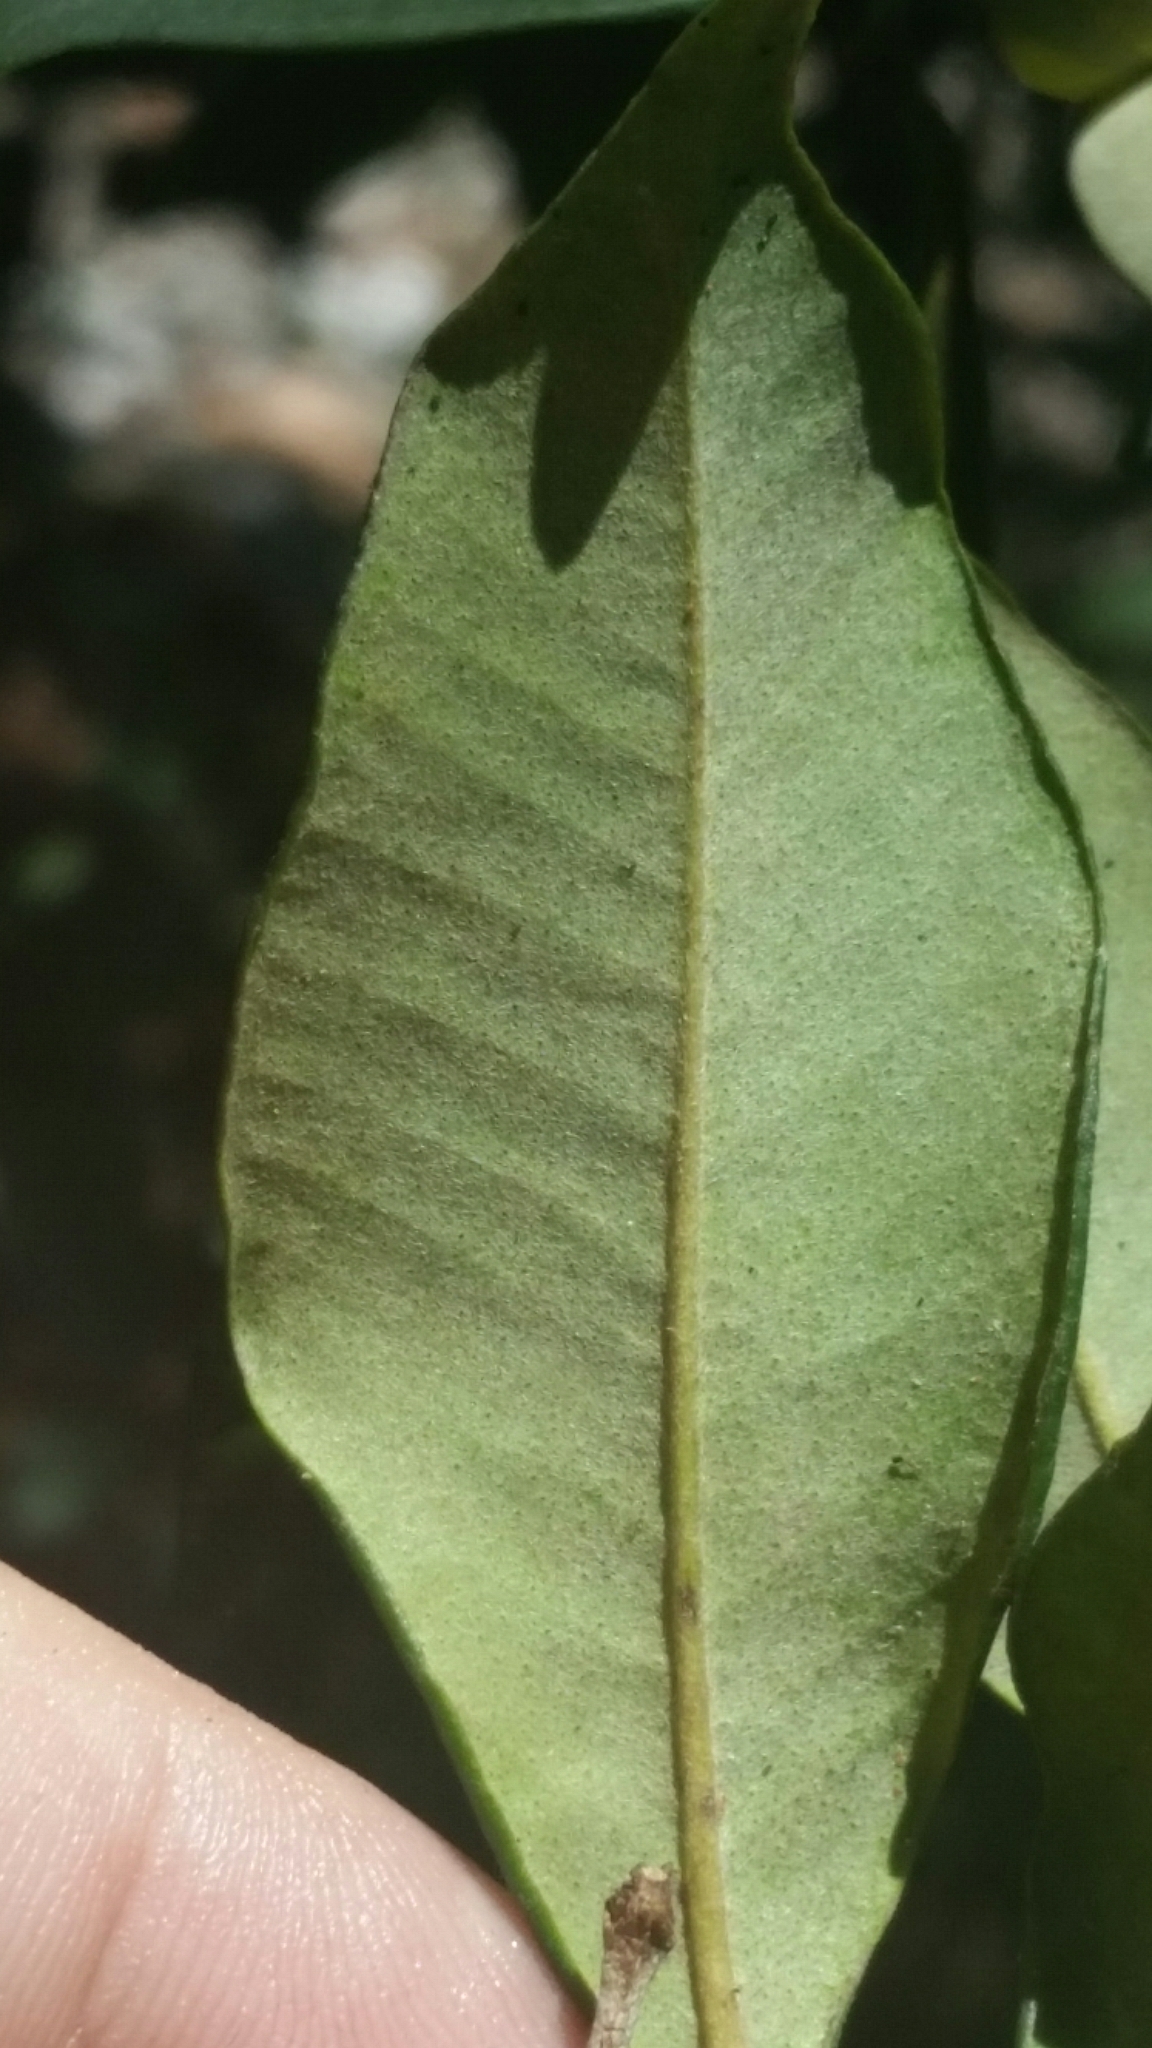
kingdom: Plantae
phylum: Tracheophyta
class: Magnoliopsida
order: Myrtales
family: Myrtaceae
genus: Myrcia
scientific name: Myrcia chytraculia
